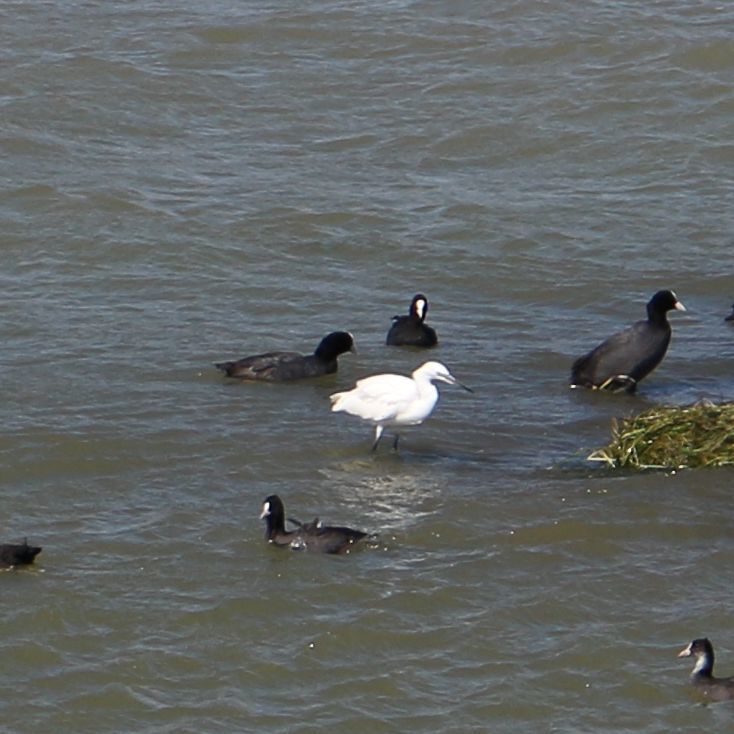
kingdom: Animalia
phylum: Chordata
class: Aves
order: Pelecaniformes
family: Ardeidae
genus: Egretta
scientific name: Egretta garzetta
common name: Little egret
